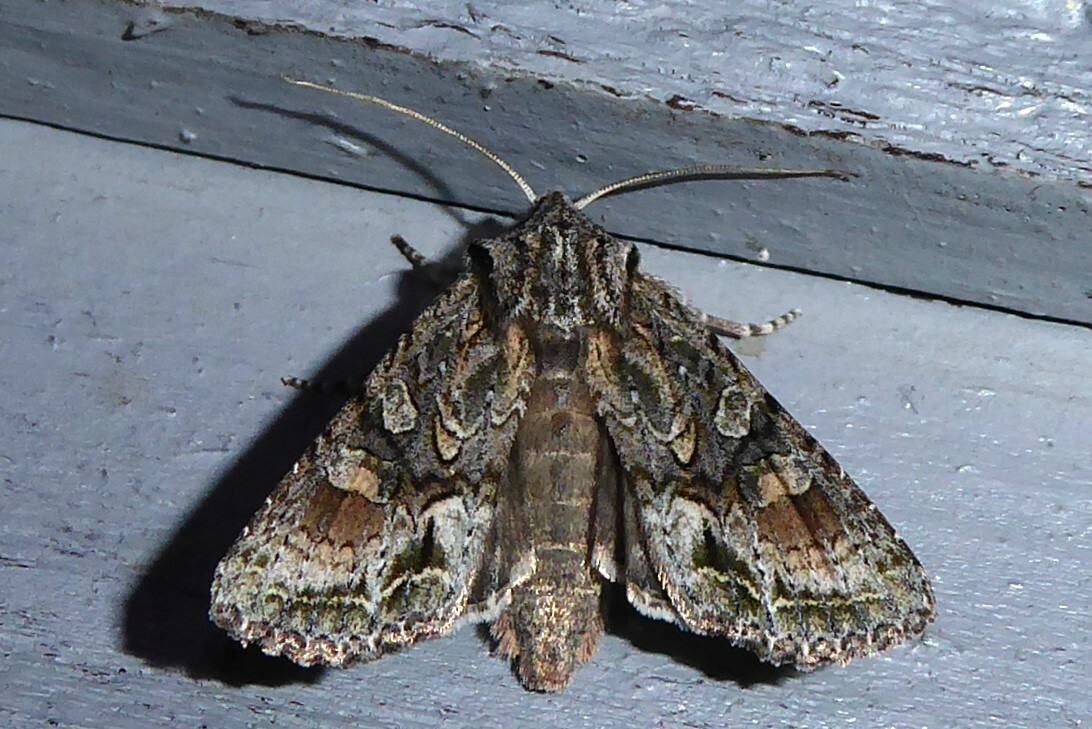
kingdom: Animalia
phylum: Arthropoda
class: Insecta
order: Lepidoptera
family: Noctuidae
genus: Ichneutica
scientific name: Ichneutica mutans
